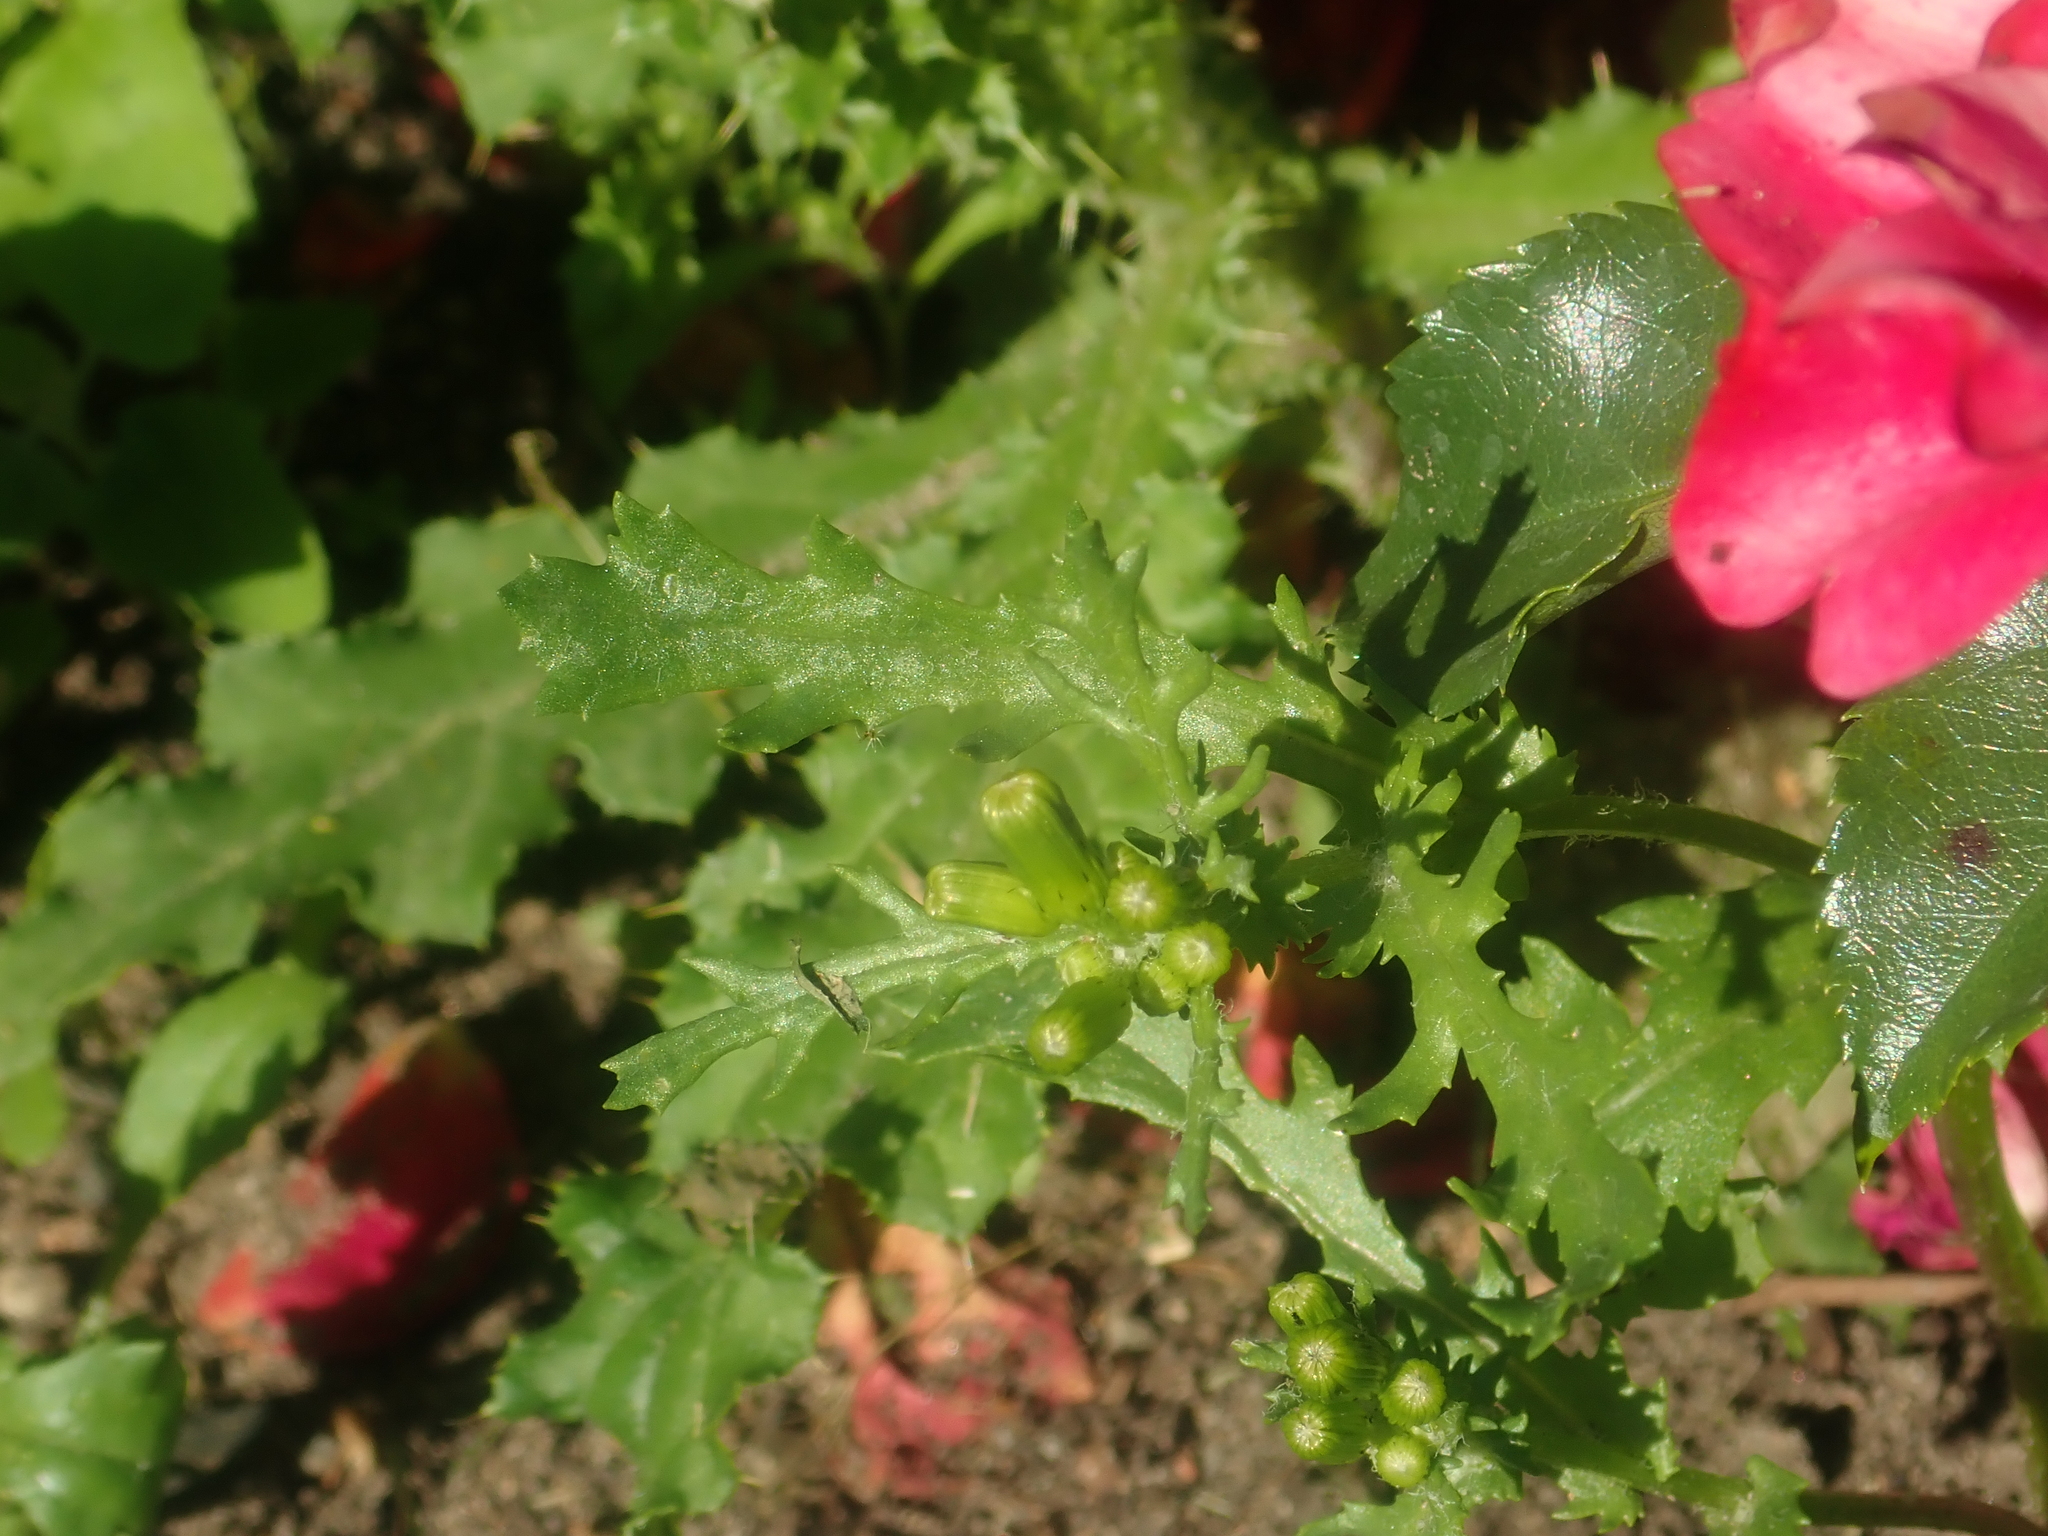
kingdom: Plantae
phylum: Tracheophyta
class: Magnoliopsida
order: Asterales
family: Asteraceae
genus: Senecio
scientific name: Senecio vulgaris
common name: Old-man-in-the-spring
